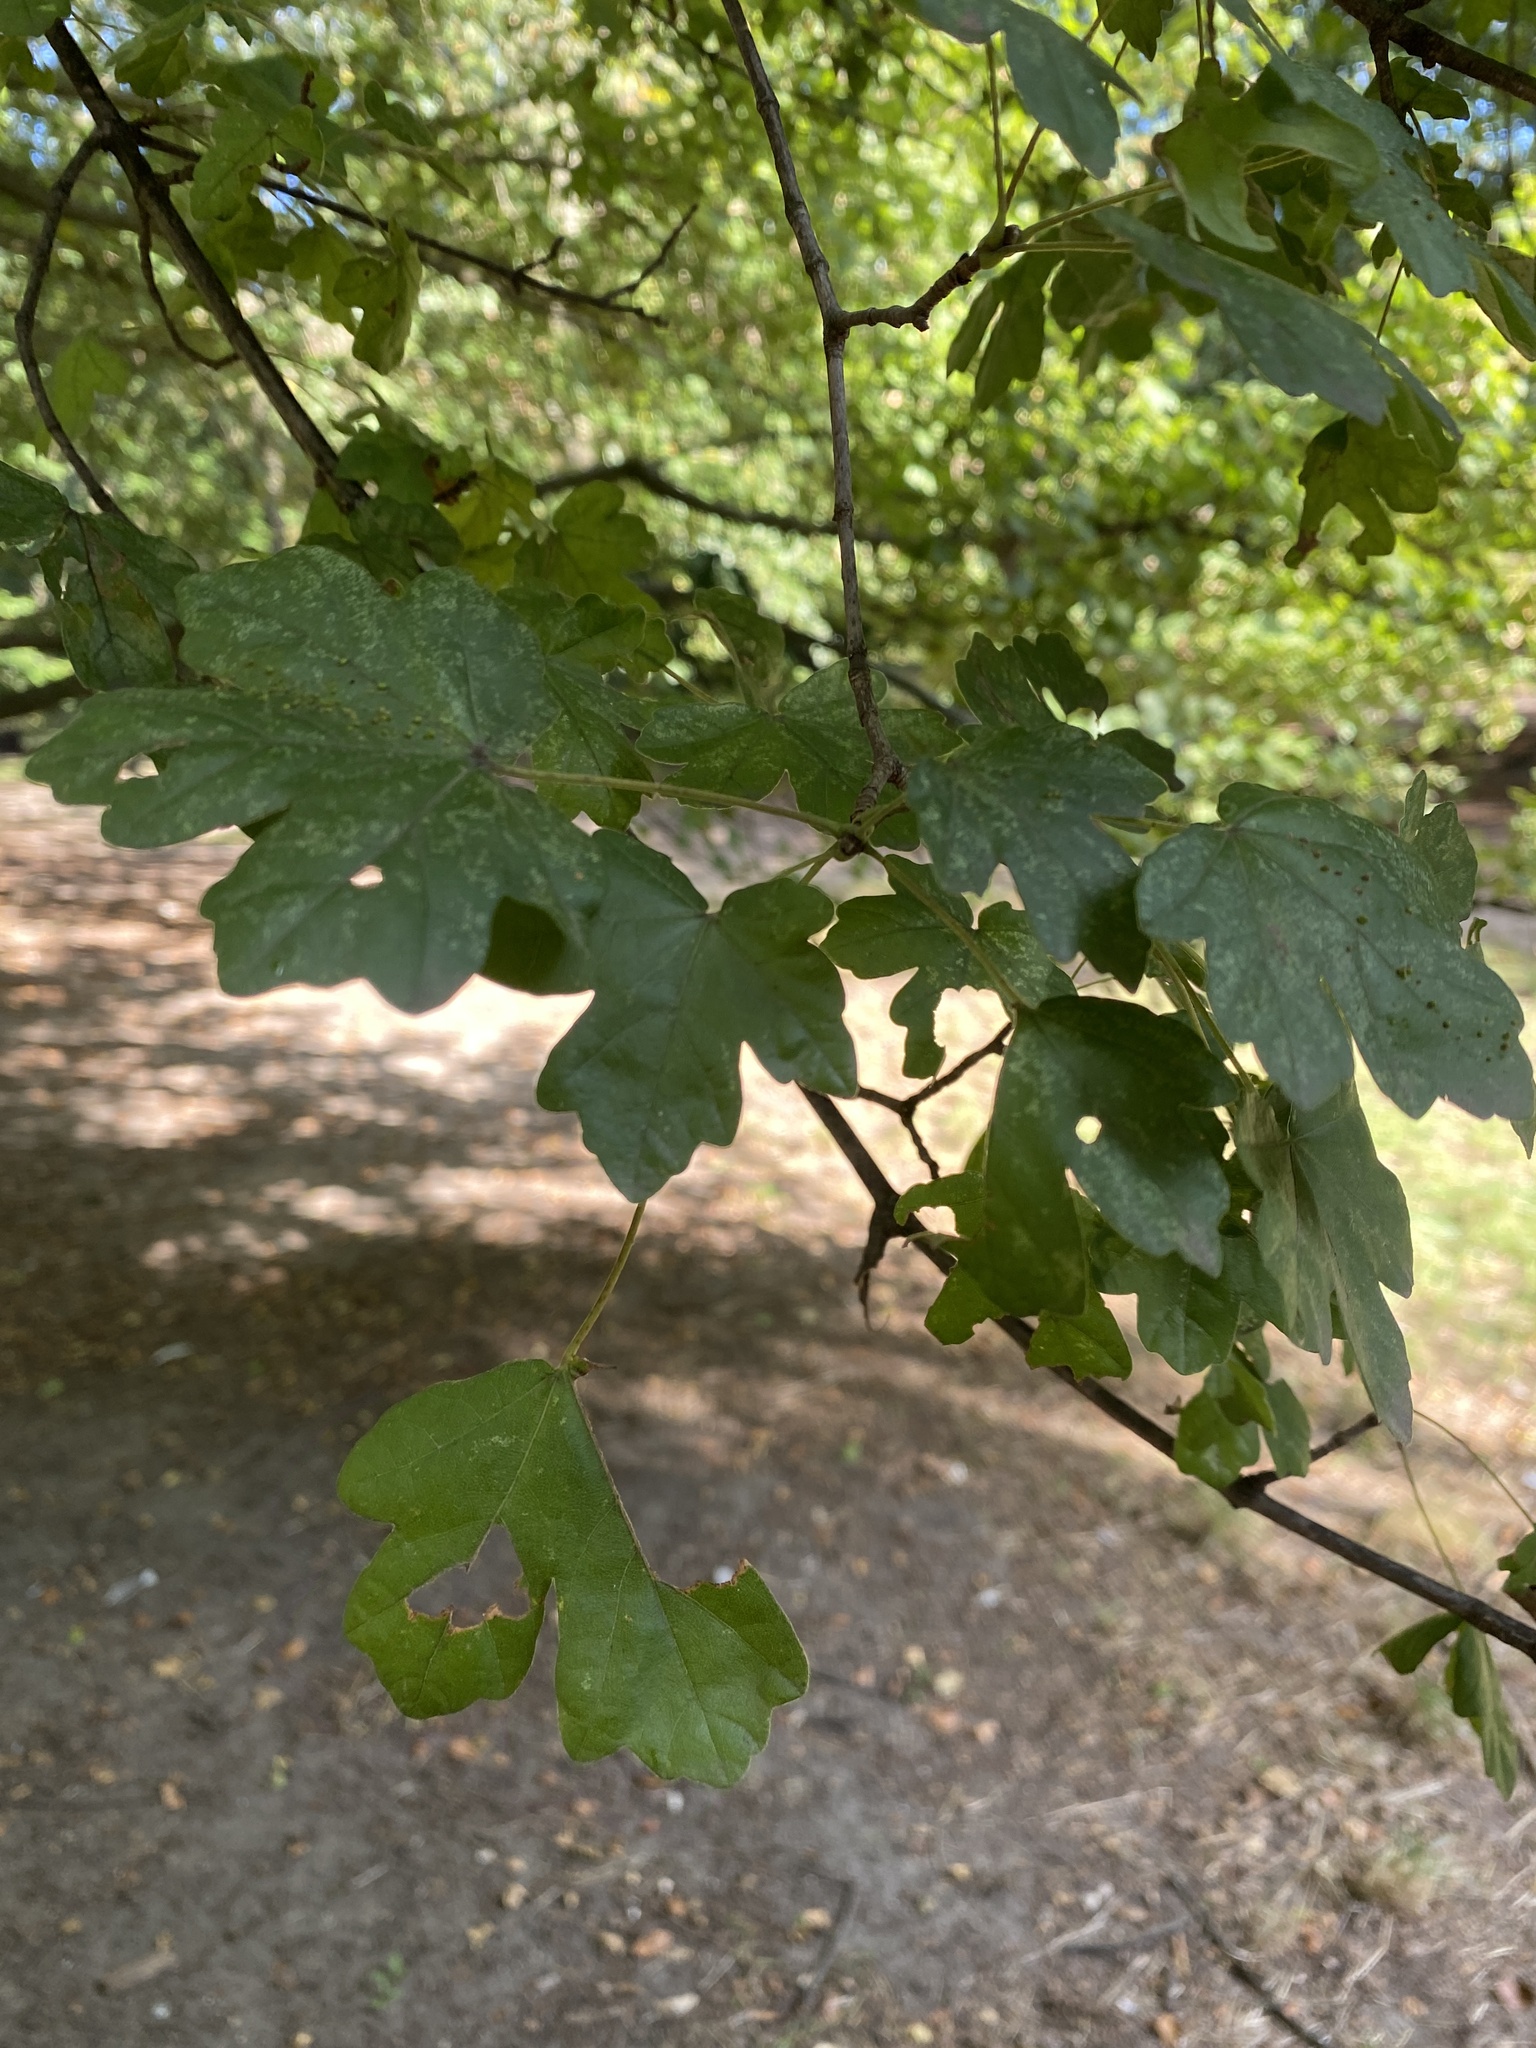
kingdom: Plantae
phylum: Tracheophyta
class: Magnoliopsida
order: Sapindales
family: Sapindaceae
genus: Acer
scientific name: Acer campestre
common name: Field maple
